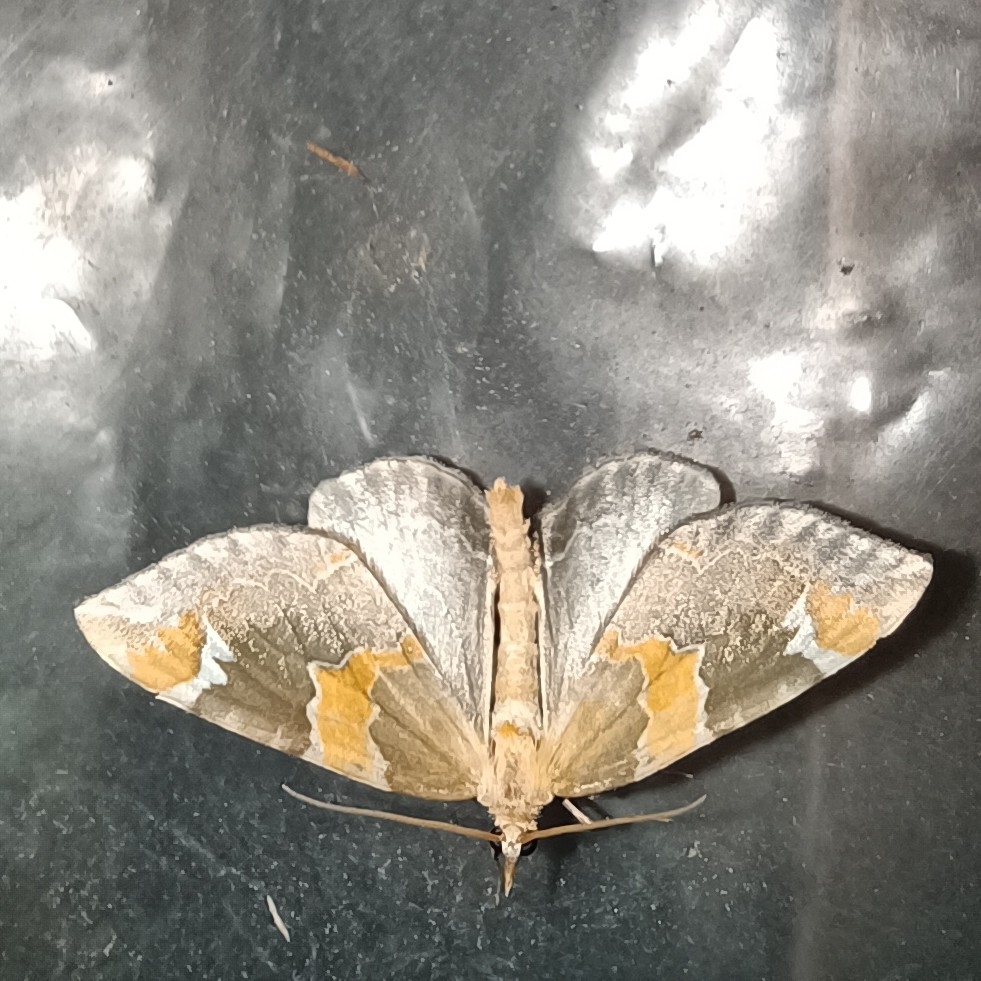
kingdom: Animalia
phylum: Arthropoda
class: Insecta
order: Lepidoptera
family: Geometridae
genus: Eulithis
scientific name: Eulithis pyropata
